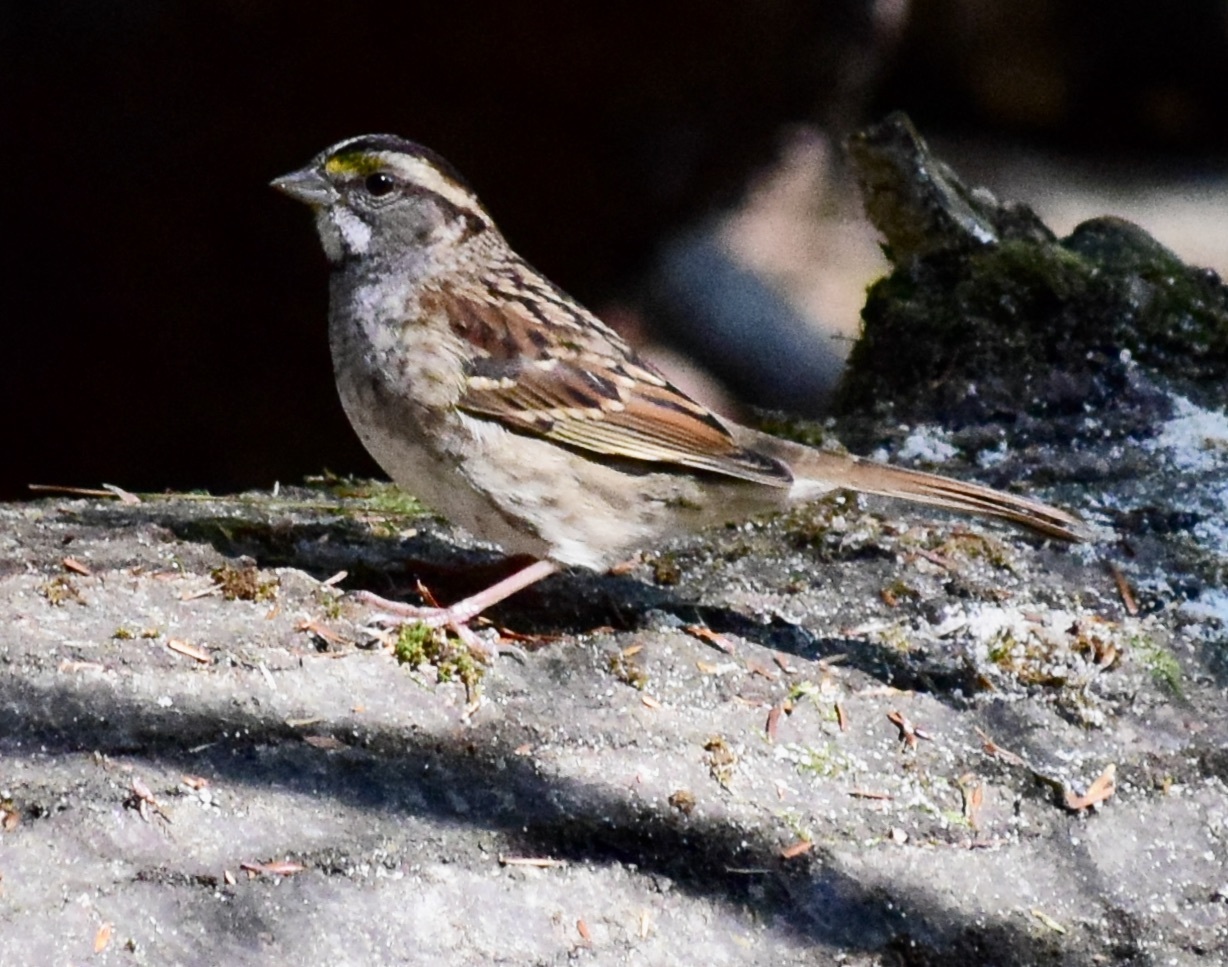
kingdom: Animalia
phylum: Chordata
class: Aves
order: Passeriformes
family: Passerellidae
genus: Zonotrichia
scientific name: Zonotrichia albicollis
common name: White-throated sparrow
